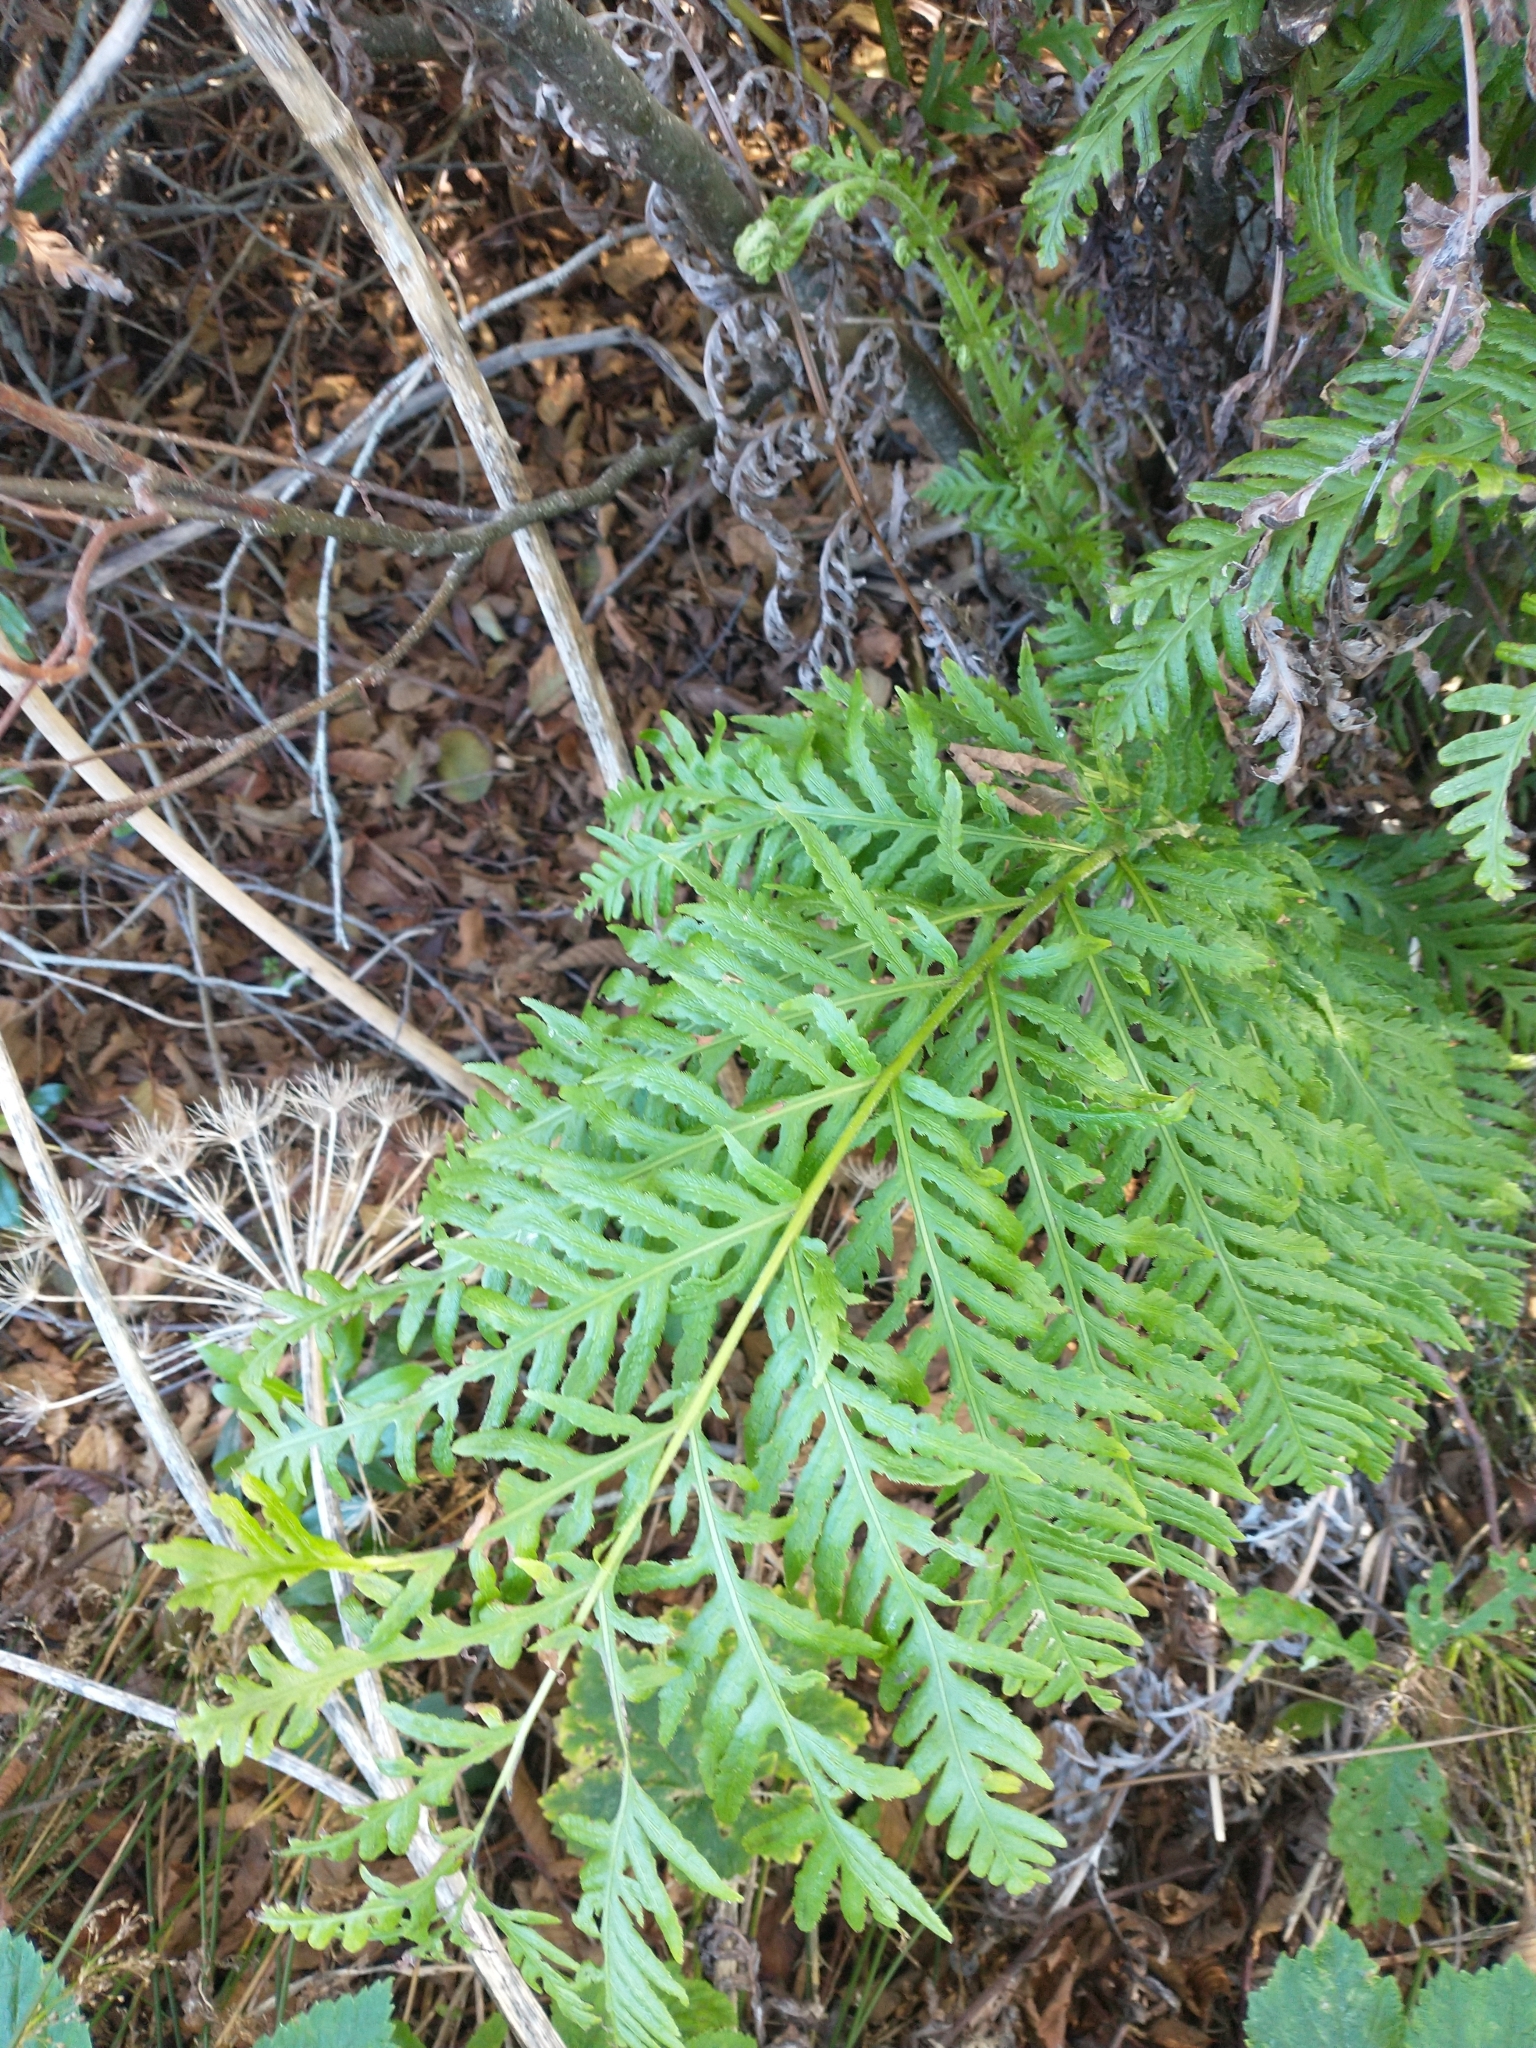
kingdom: Plantae
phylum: Tracheophyta
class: Polypodiopsida
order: Polypodiales
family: Blechnaceae
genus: Woodwardia
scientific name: Woodwardia fimbriata
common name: Giant chain fern
